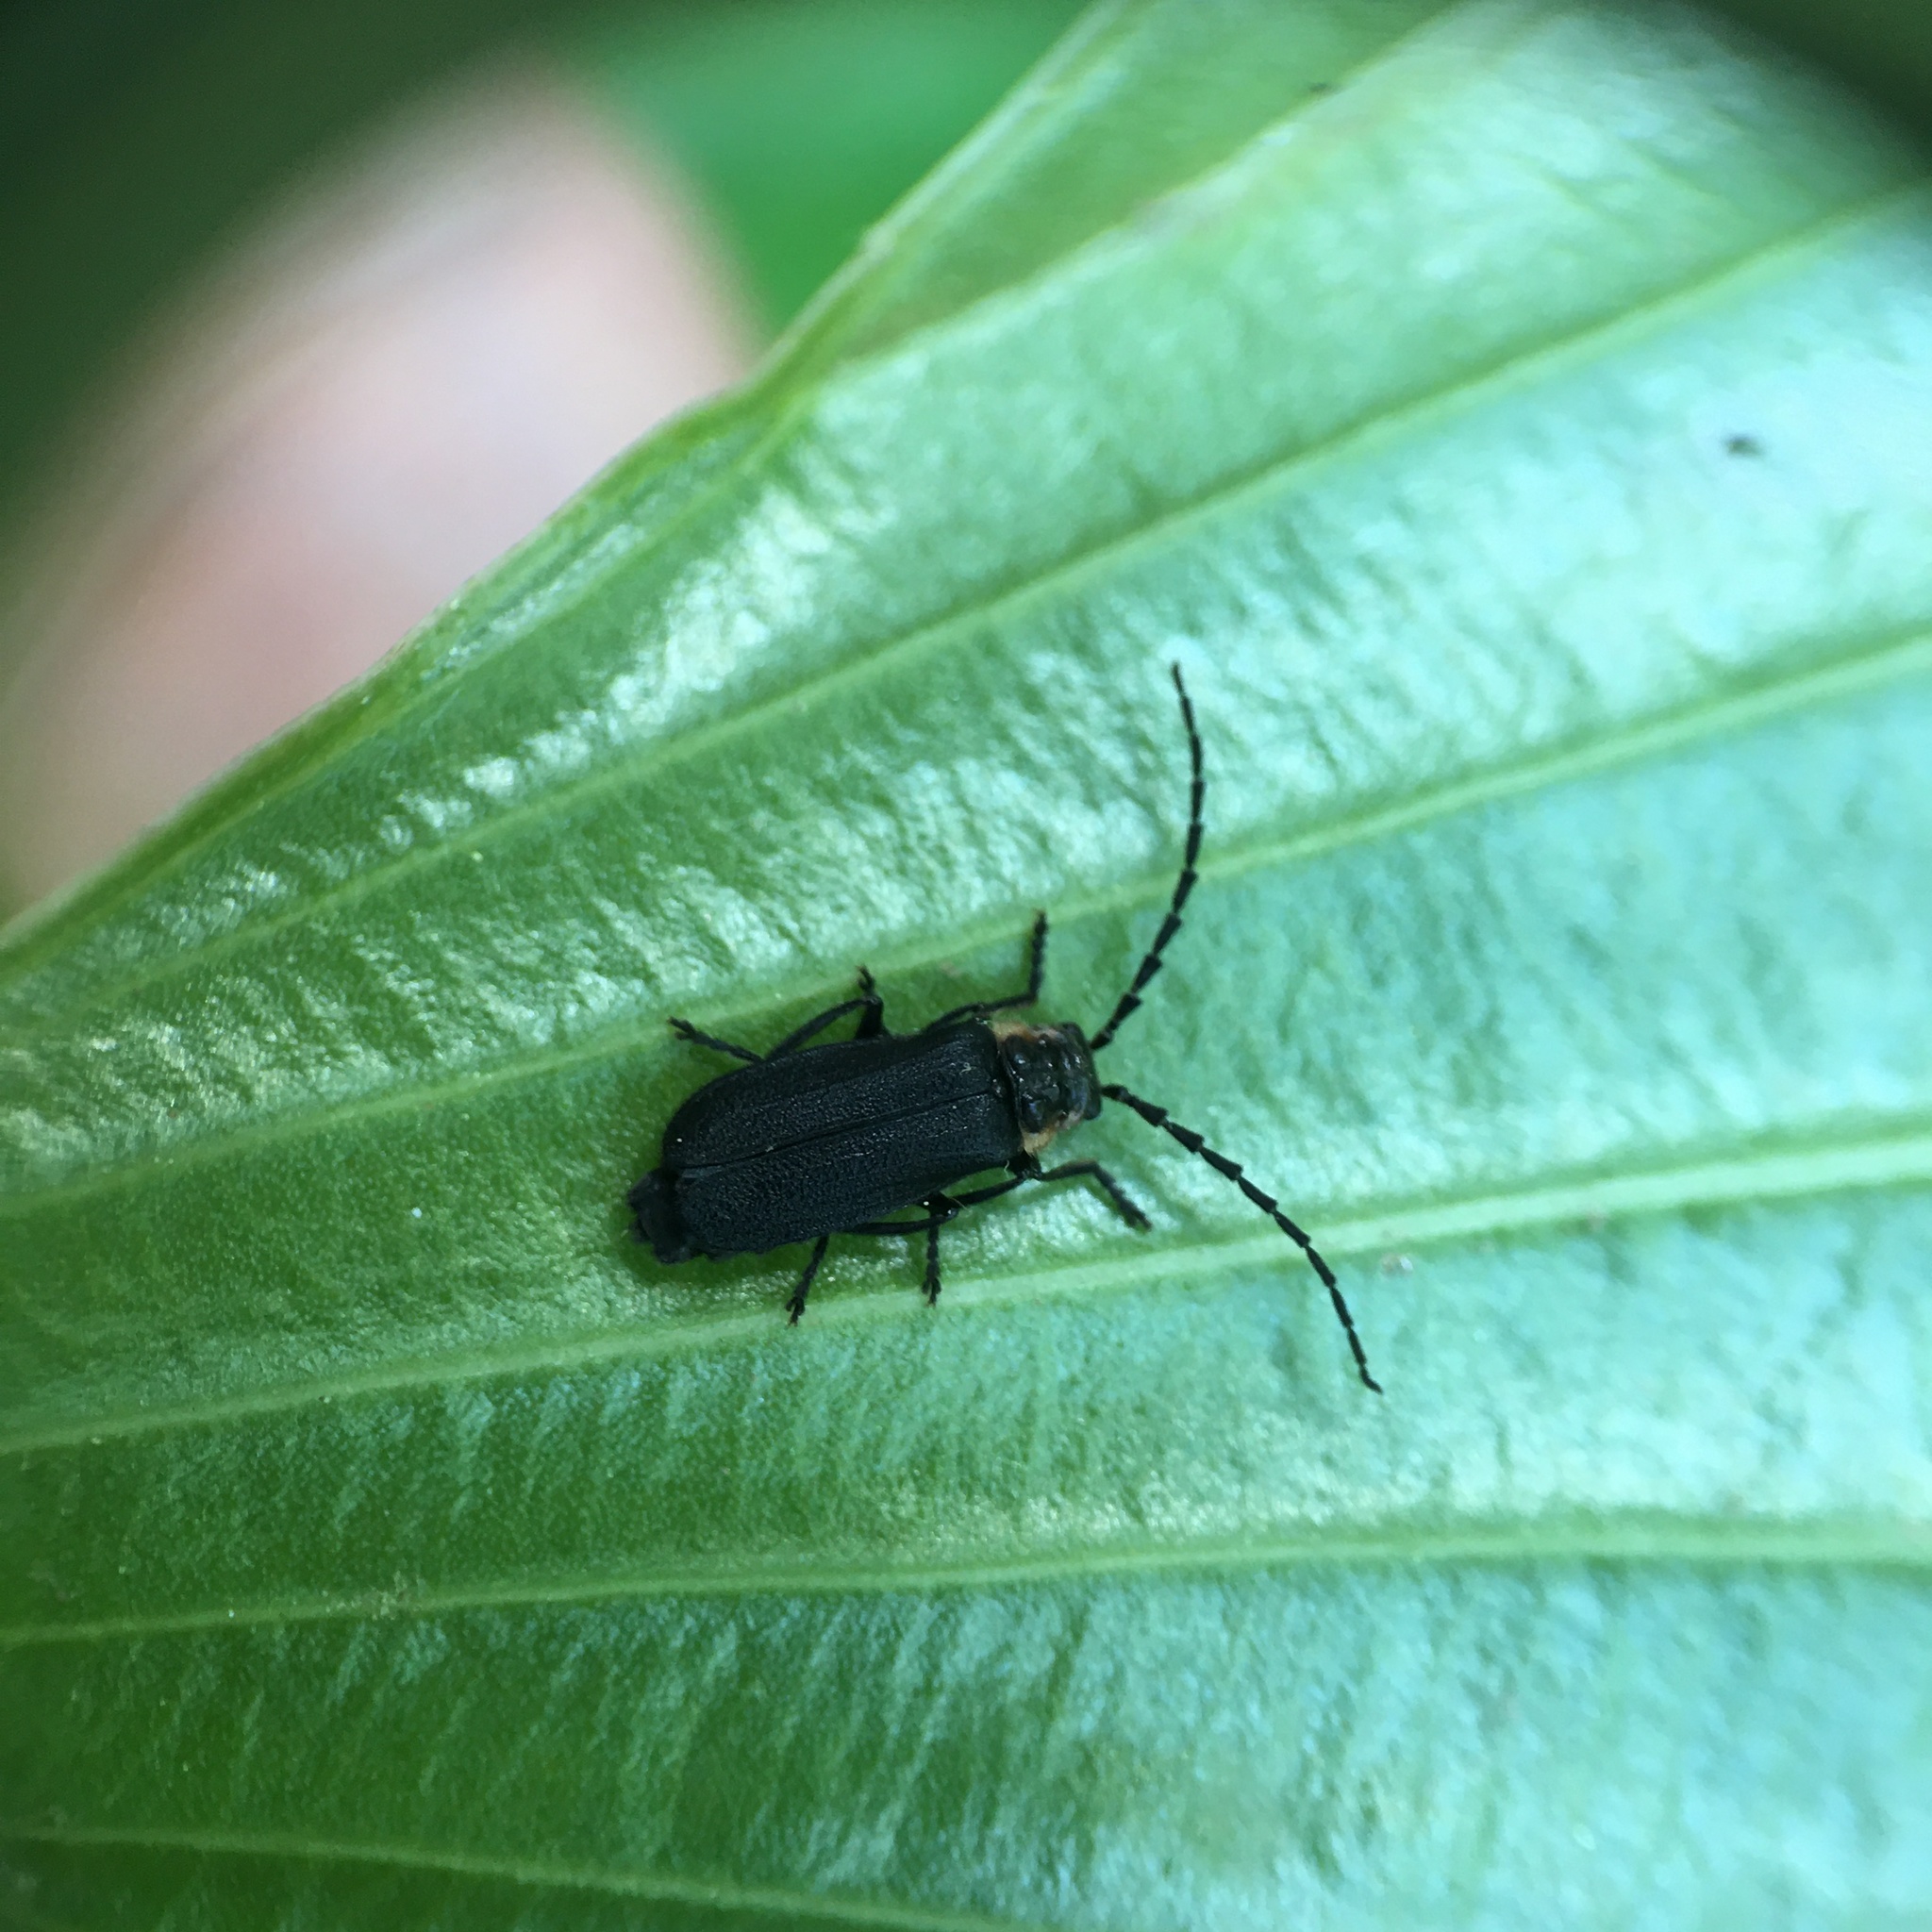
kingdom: Animalia
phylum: Arthropoda
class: Insecta
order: Coleoptera
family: Cantharidae
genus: Polemius
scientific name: Polemius laticornis
